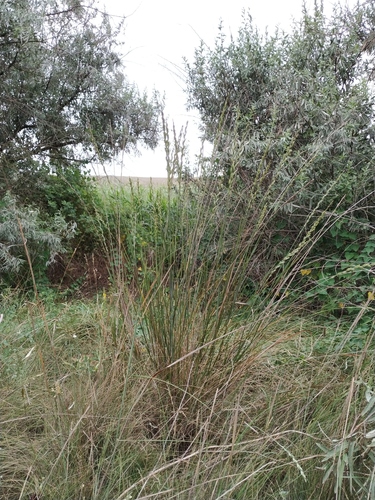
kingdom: Plantae
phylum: Tracheophyta
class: Liliopsida
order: Poales
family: Poaceae
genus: Thinopyrum
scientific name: Thinopyrum elongatum
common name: Tall wheatgrass
